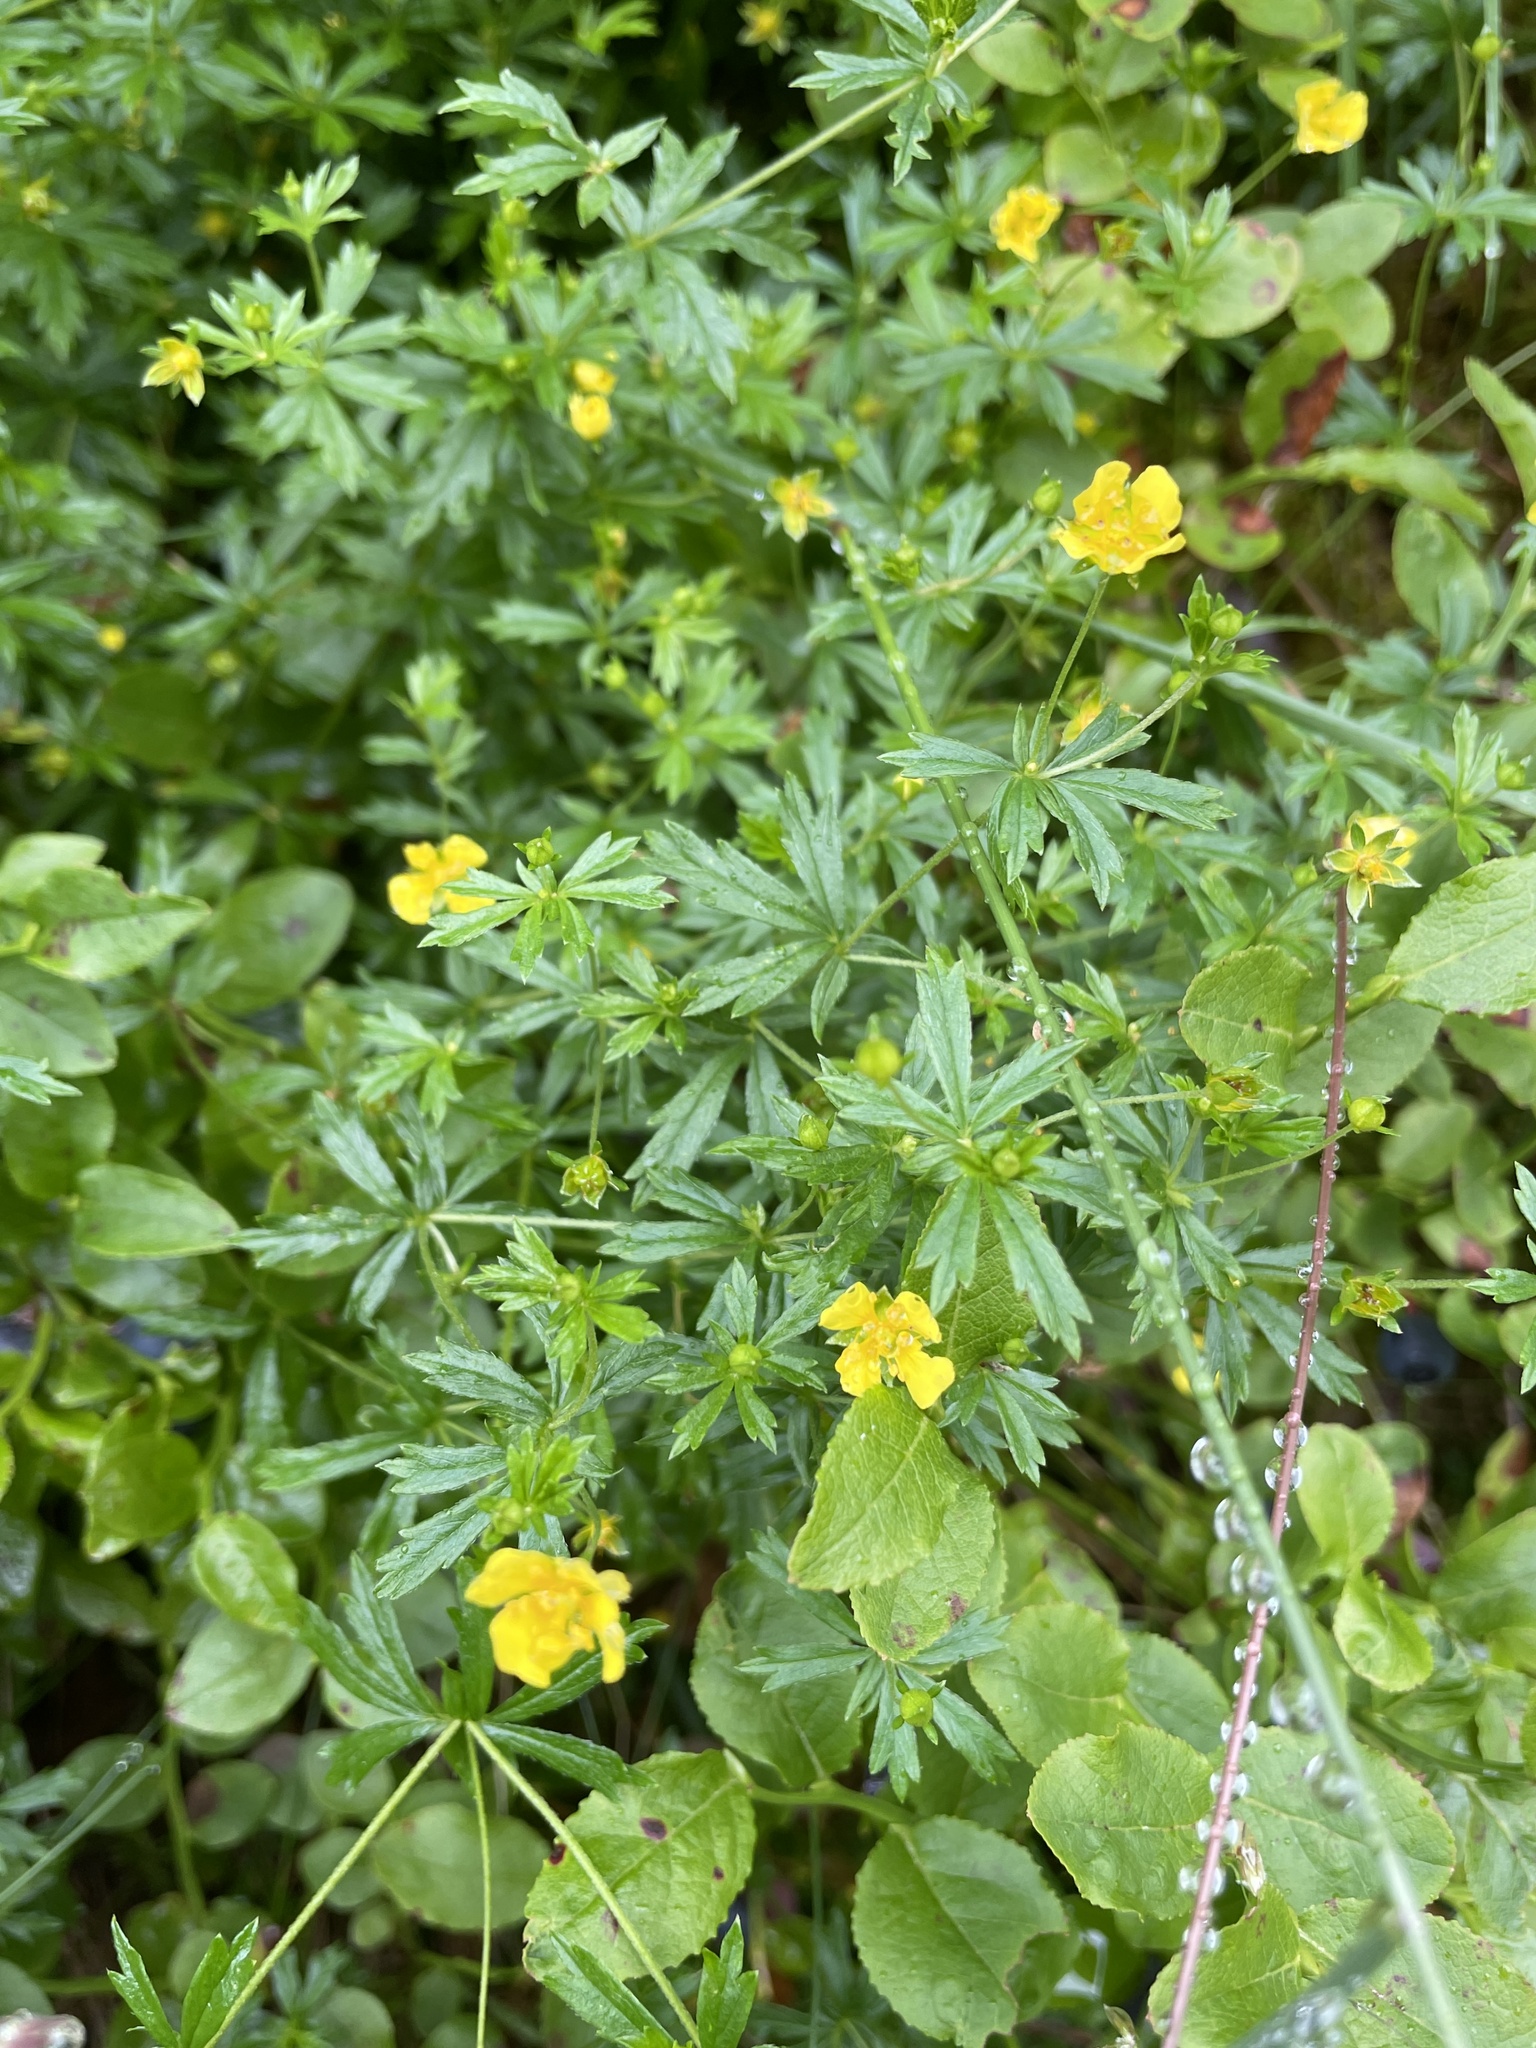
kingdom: Plantae
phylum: Tracheophyta
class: Magnoliopsida
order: Rosales
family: Rosaceae
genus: Potentilla
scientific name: Potentilla erecta
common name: Tormentil
